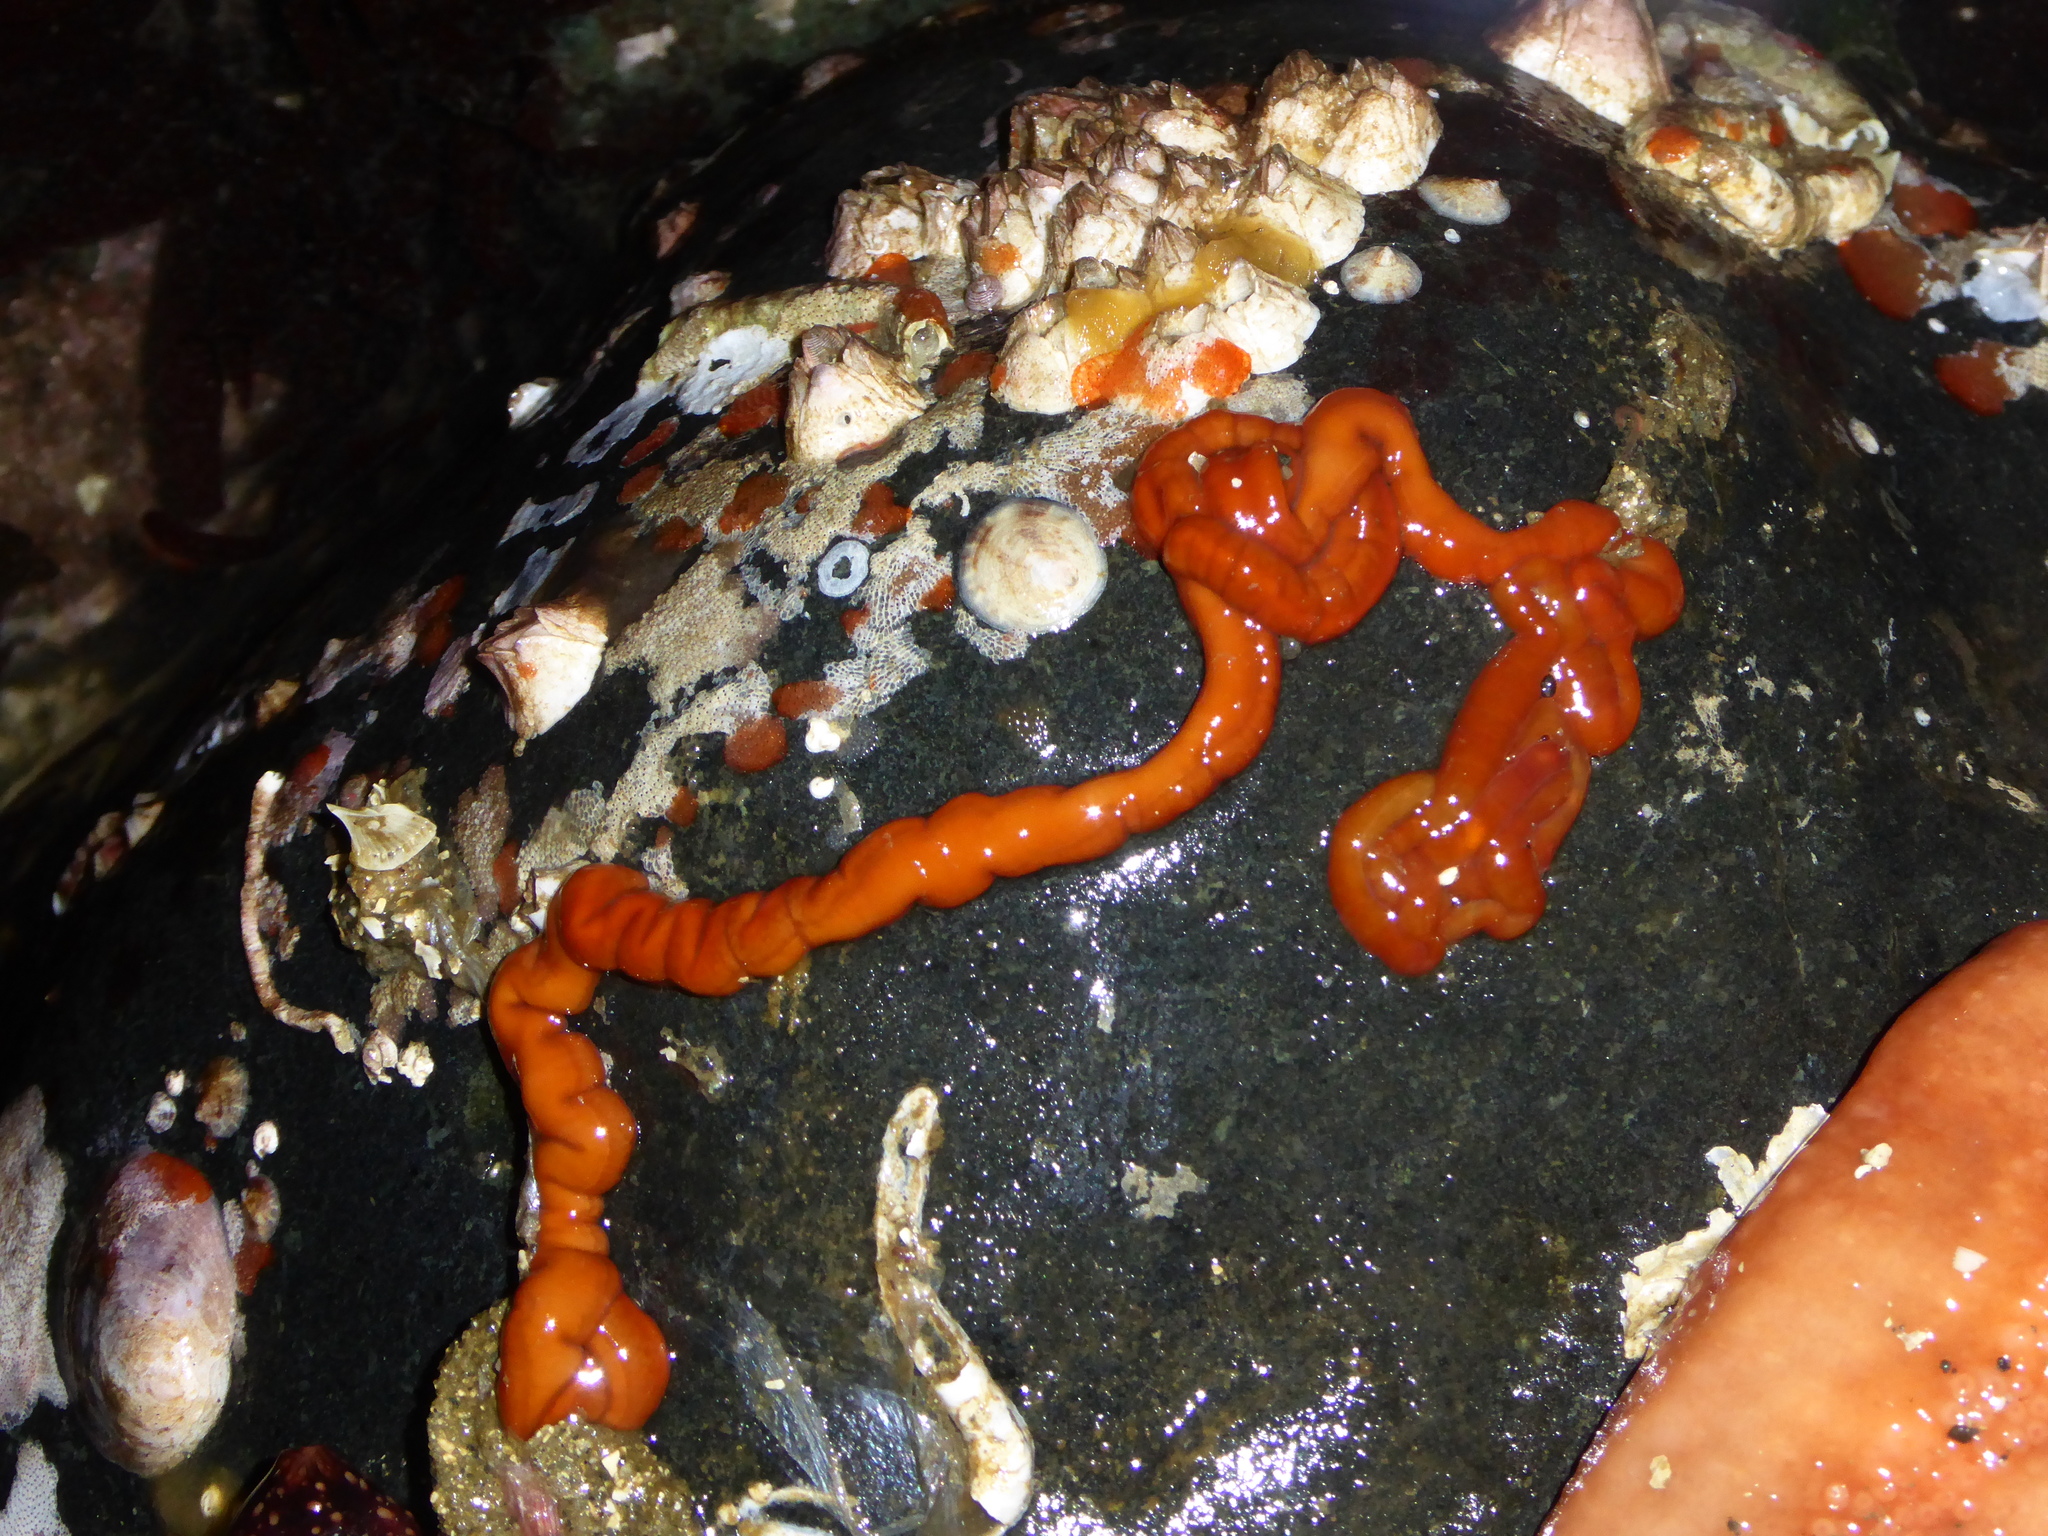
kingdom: Animalia
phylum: Nemertea
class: Palaeonemertea
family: Tubulanidae
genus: Tubulanus
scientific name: Tubulanus polymorphus
